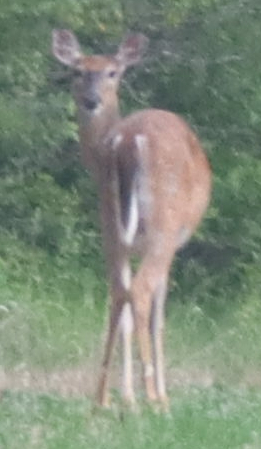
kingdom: Animalia
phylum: Chordata
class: Mammalia
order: Artiodactyla
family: Cervidae
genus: Odocoileus
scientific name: Odocoileus virginianus
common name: White-tailed deer
